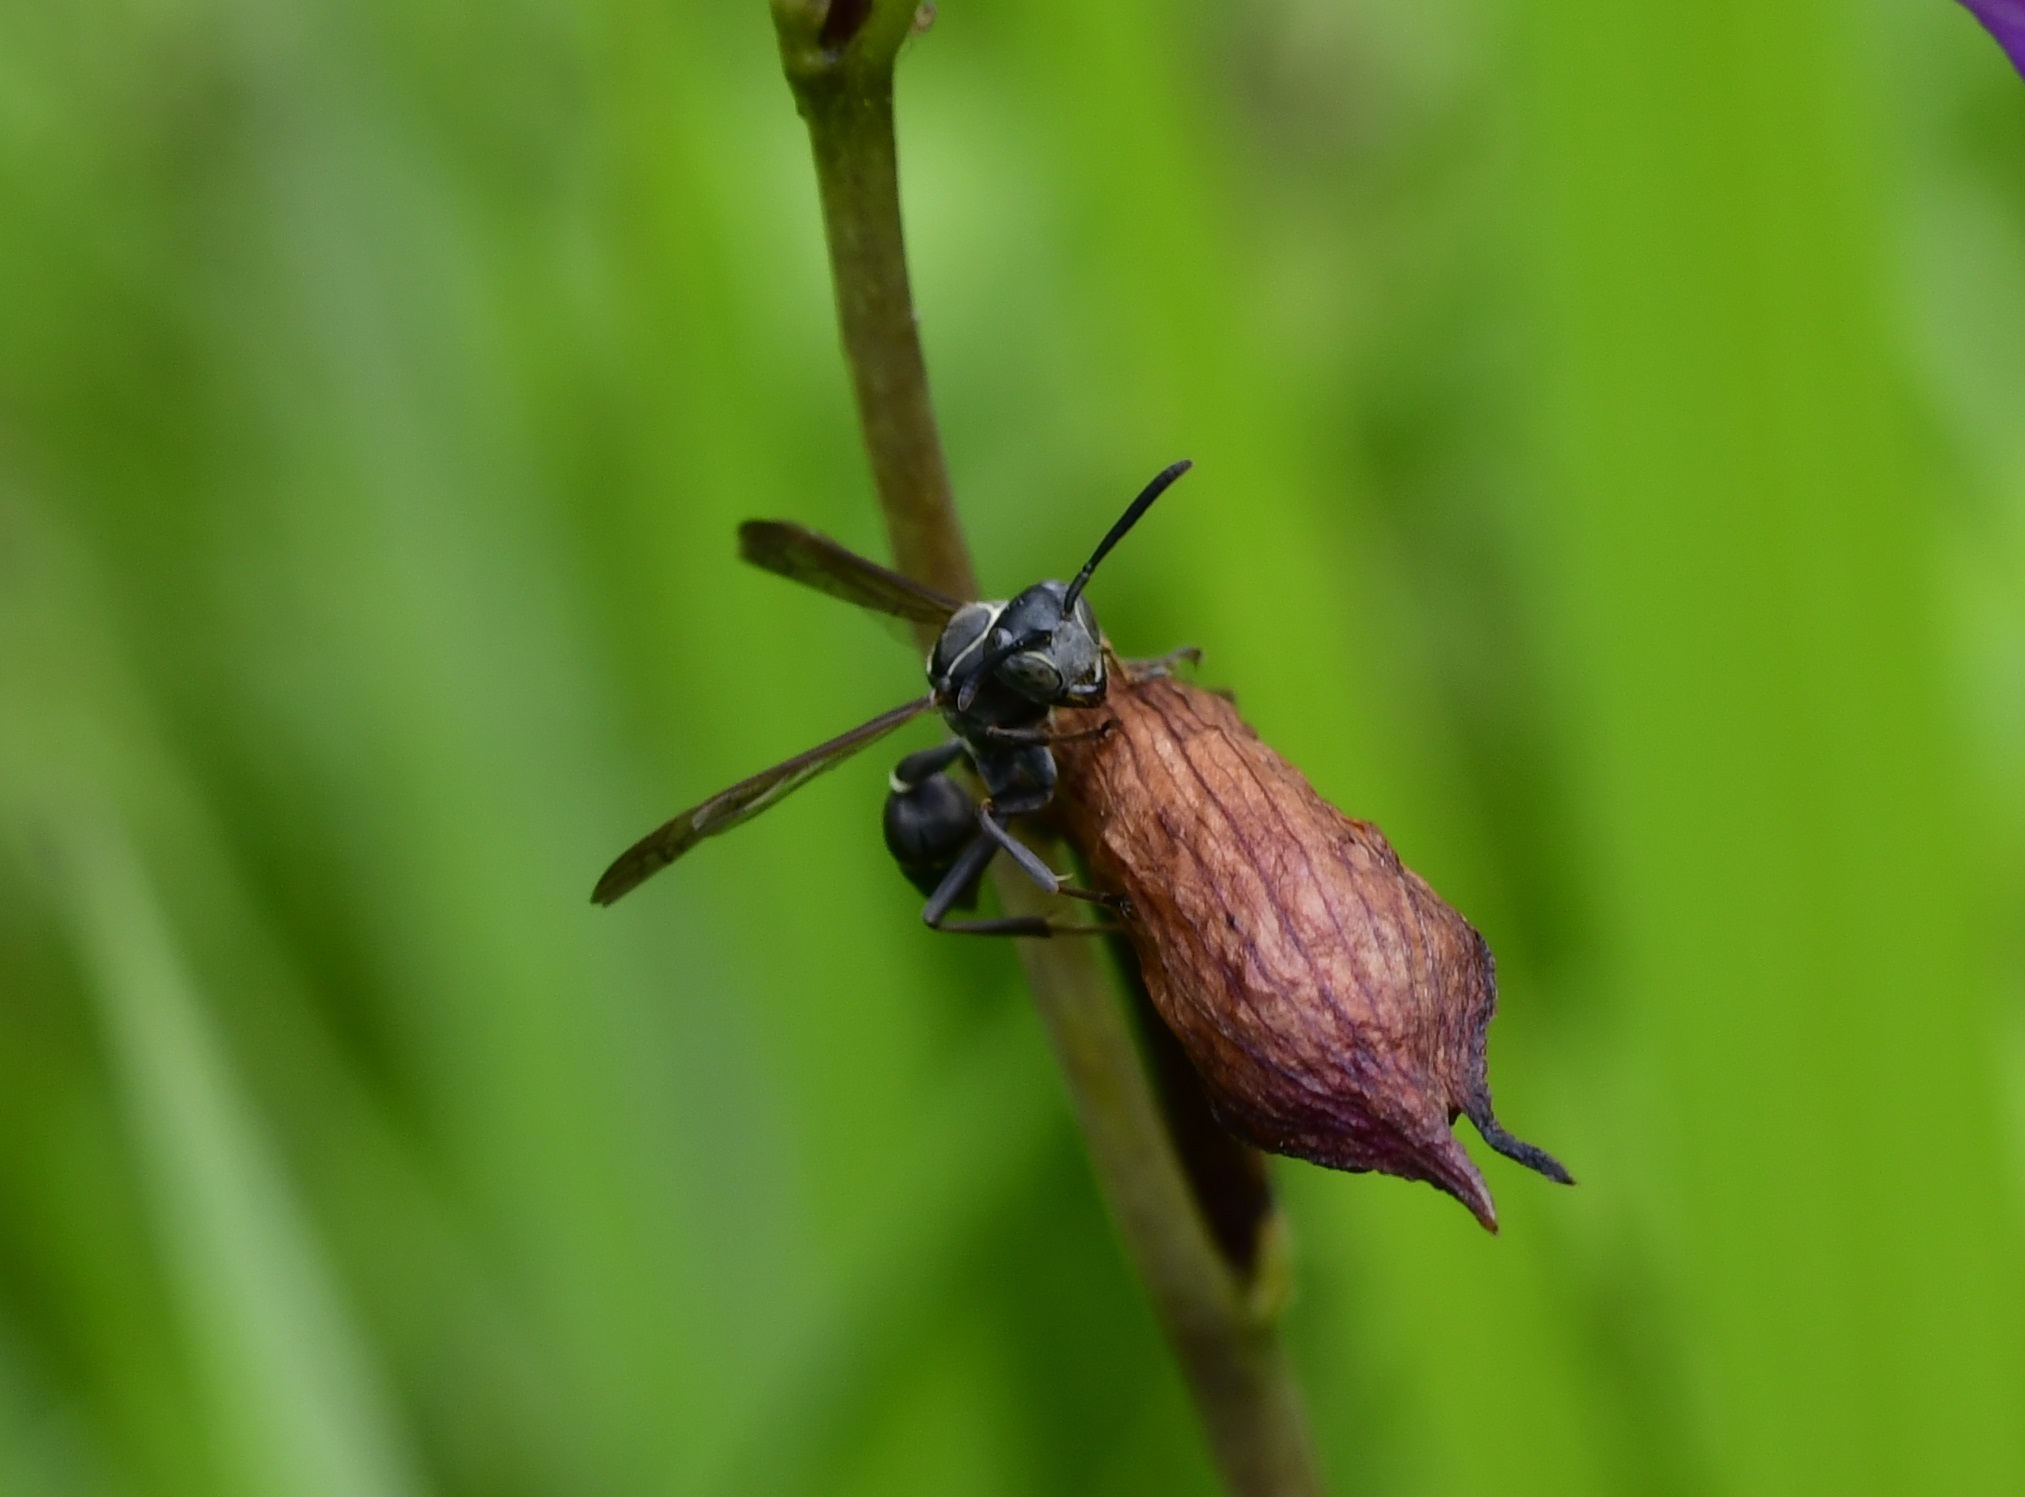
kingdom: Animalia
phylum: Arthropoda
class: Insecta
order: Hymenoptera
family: Eumenidae
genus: Polybia
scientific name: Polybia plebeja
